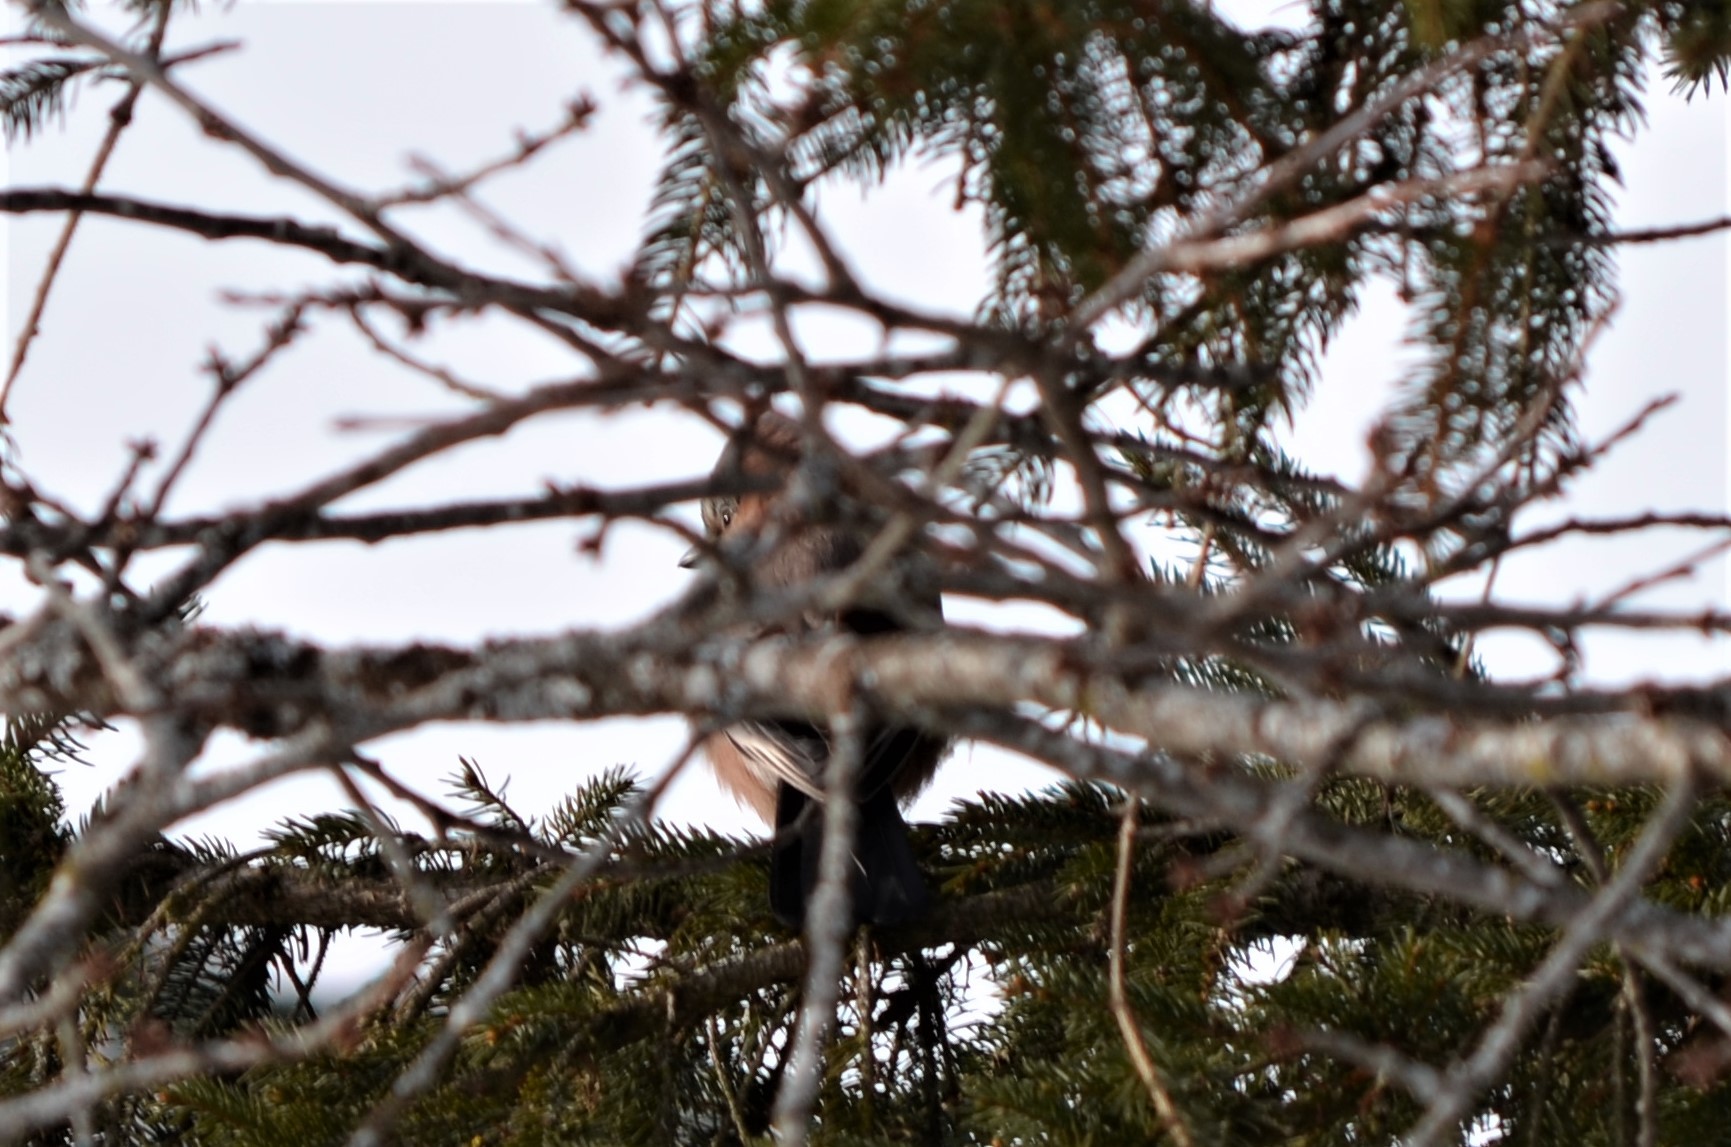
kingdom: Animalia
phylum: Chordata
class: Aves
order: Passeriformes
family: Corvidae
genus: Garrulus
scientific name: Garrulus glandarius
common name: Eurasian jay
